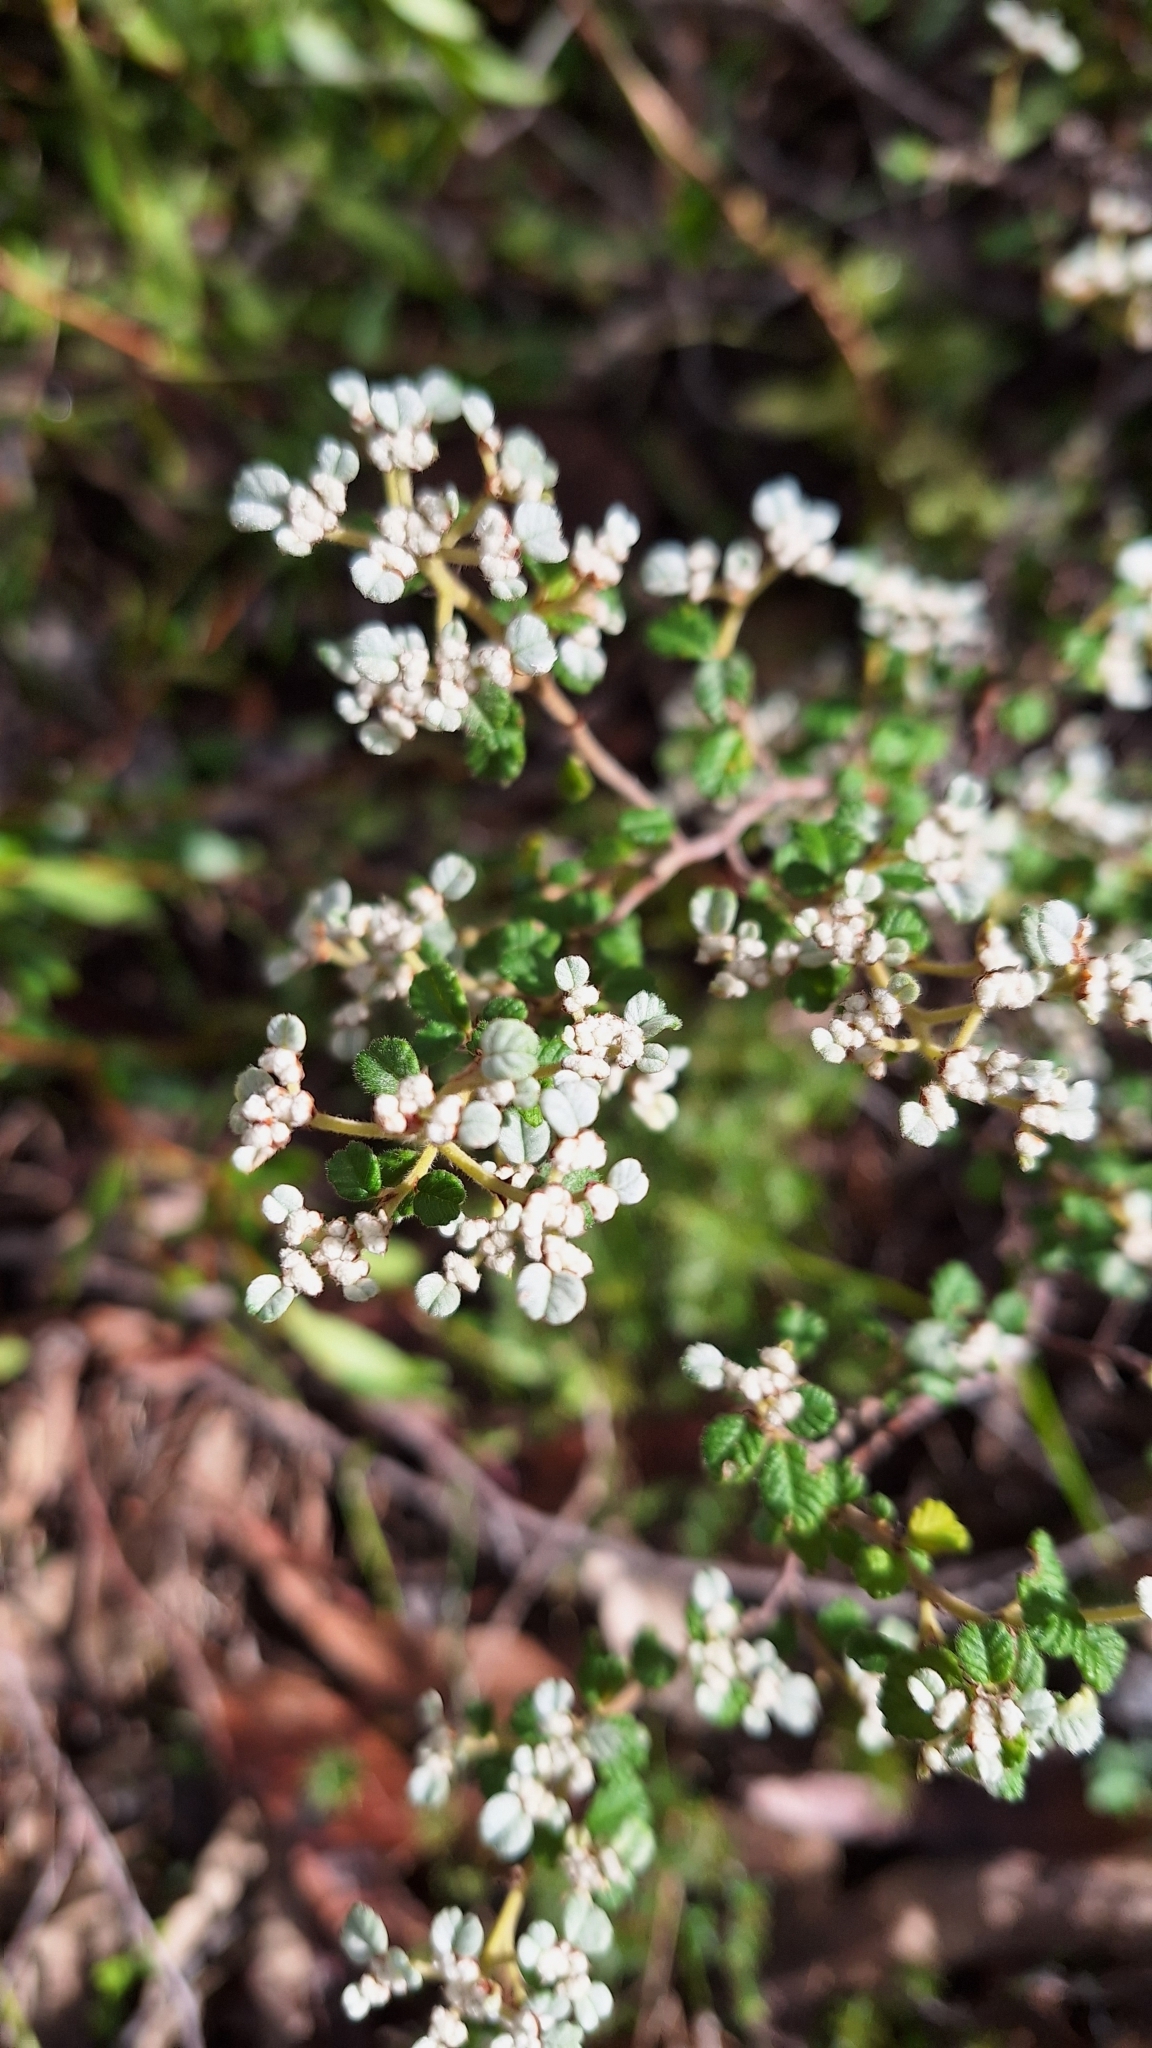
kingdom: Plantae
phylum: Tracheophyta
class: Magnoliopsida
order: Rosales
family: Rhamnaceae
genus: Spyridium
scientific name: Spyridium parvifolium
